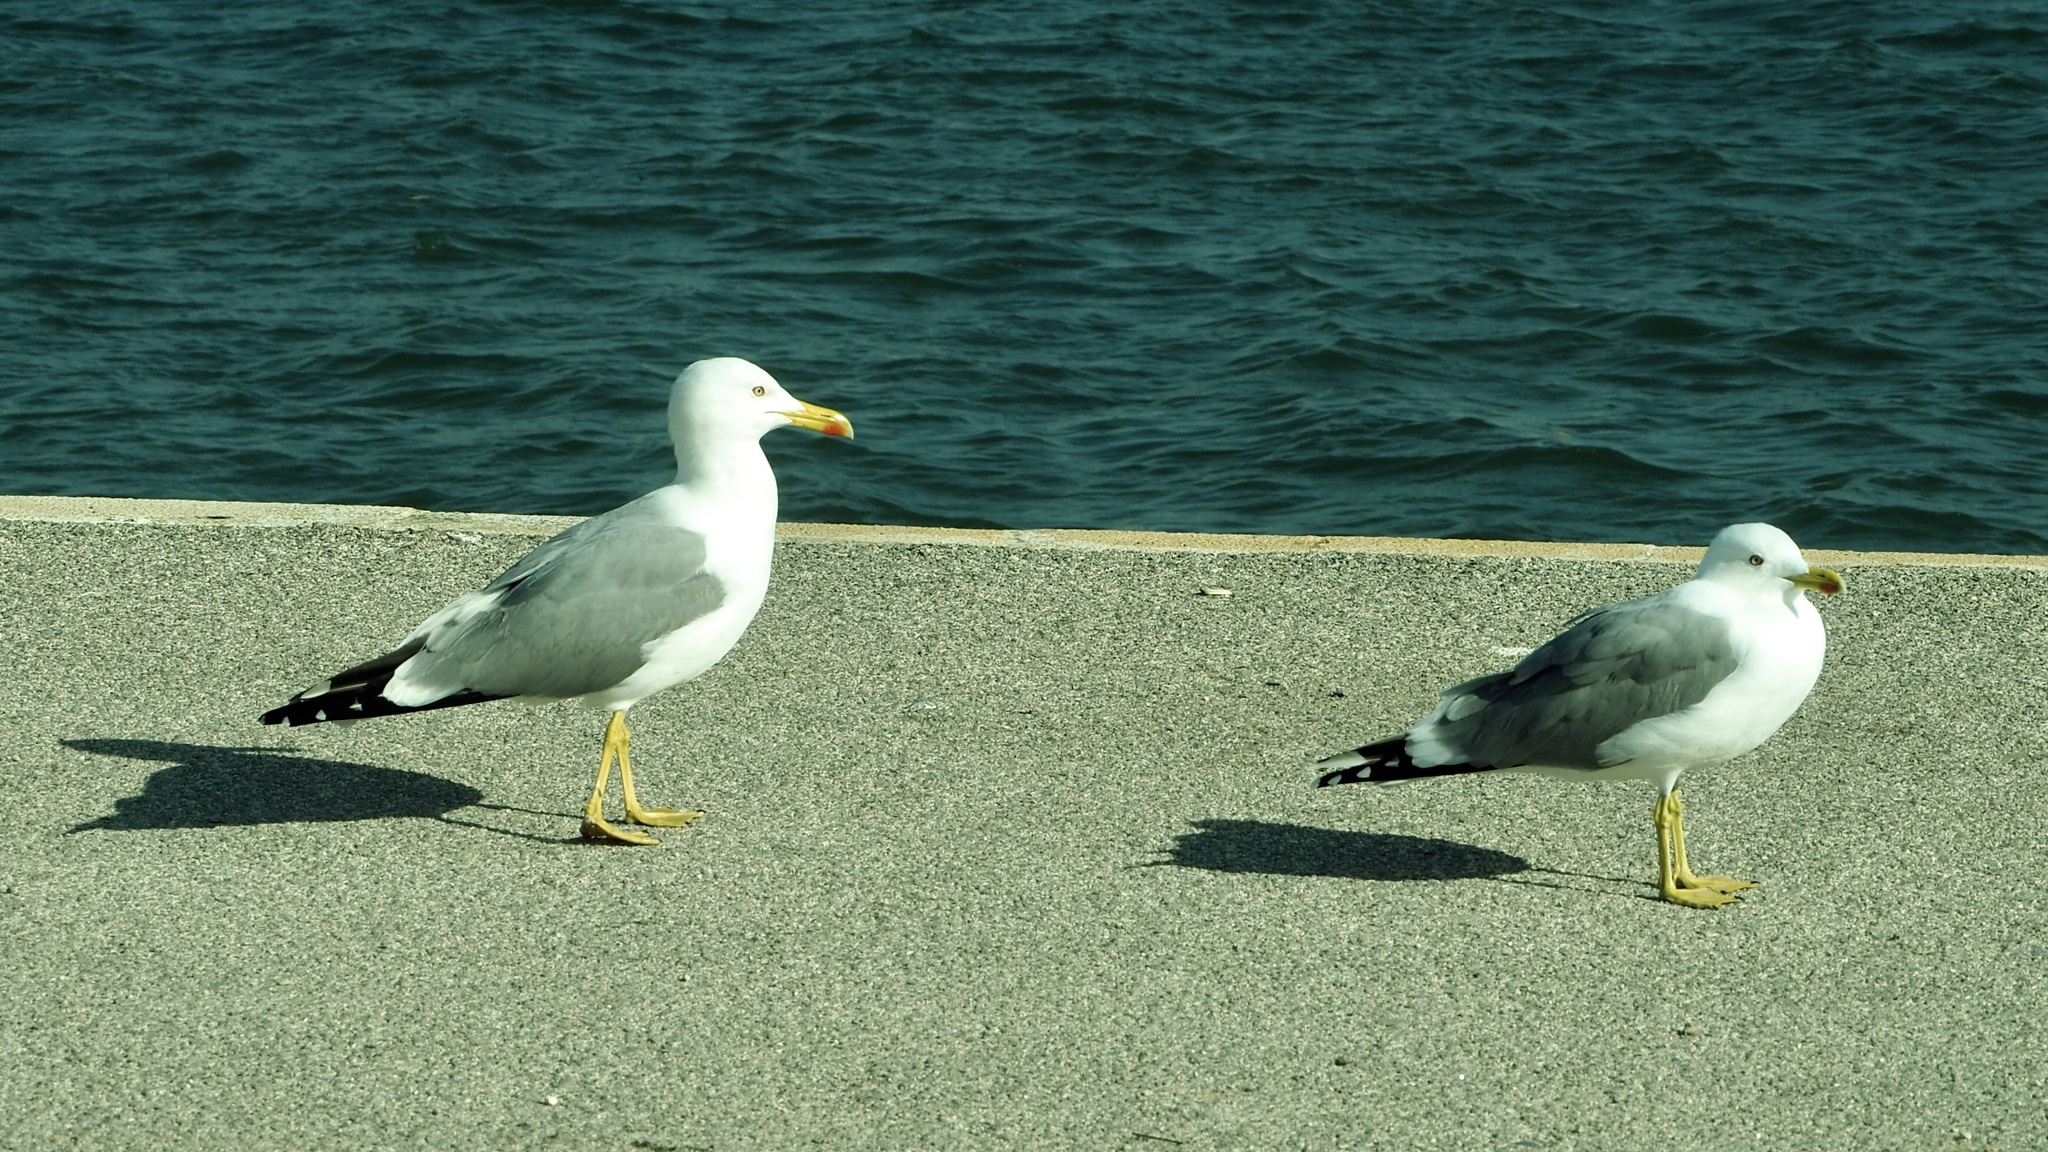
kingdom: Animalia
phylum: Chordata
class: Aves
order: Charadriiformes
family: Laridae
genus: Larus
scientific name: Larus michahellis
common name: Yellow-legged gull
